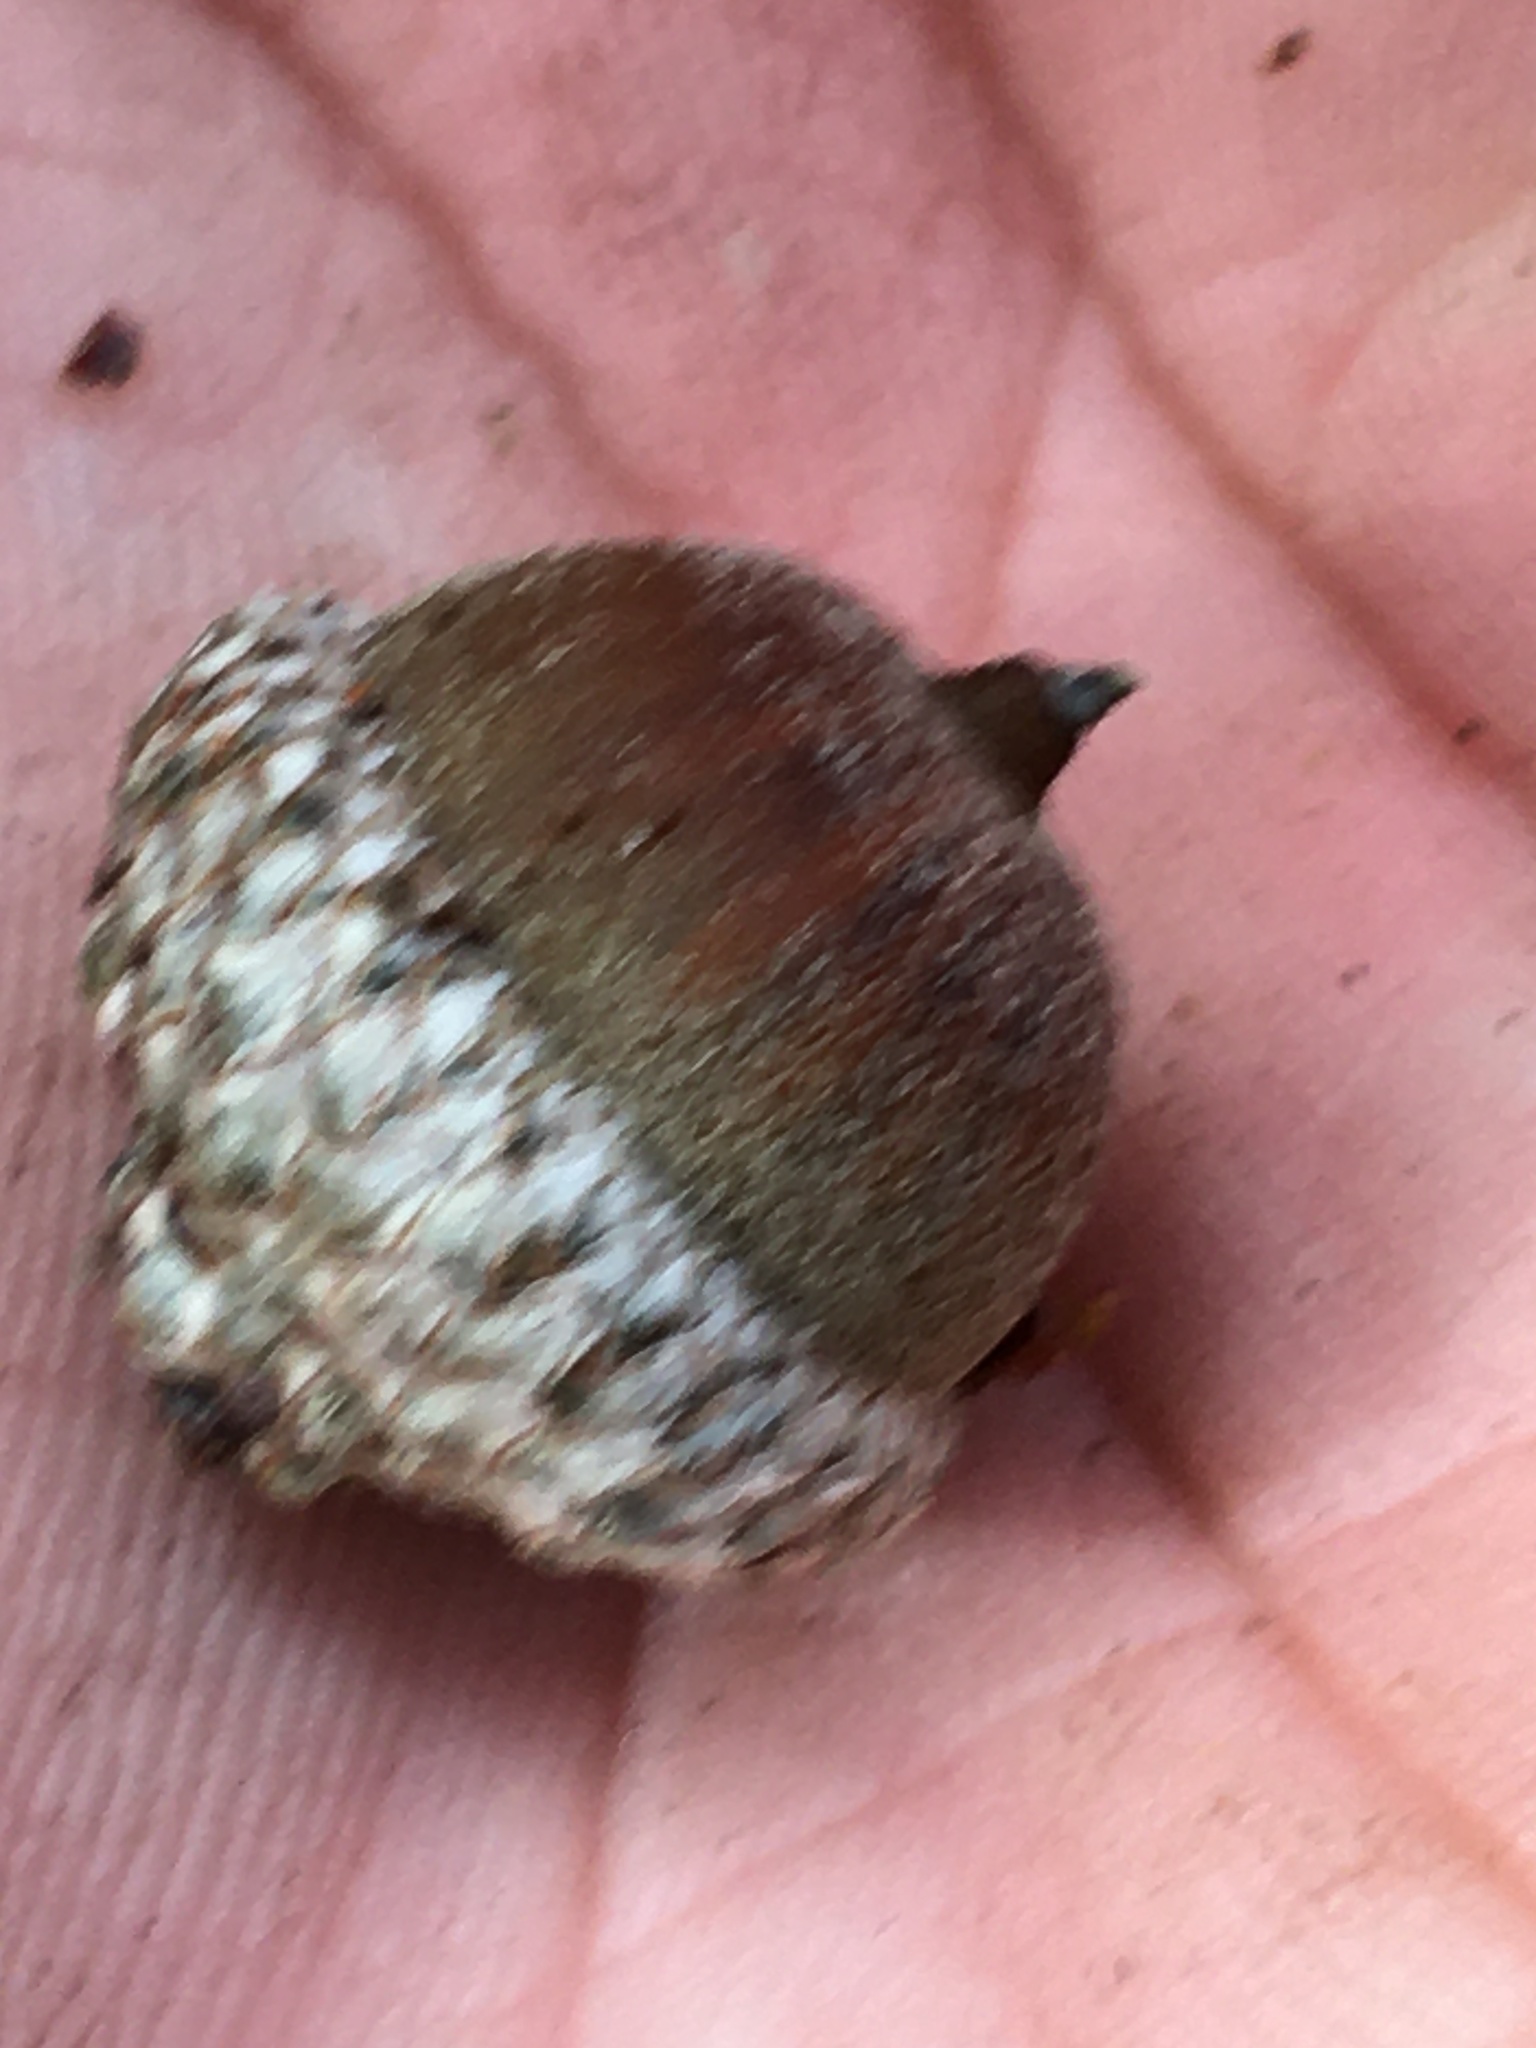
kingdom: Plantae
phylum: Tracheophyta
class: Magnoliopsida
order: Fagales
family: Fagaceae
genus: Quercus
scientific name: Quercus pagoda
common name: Cherrybark oak
